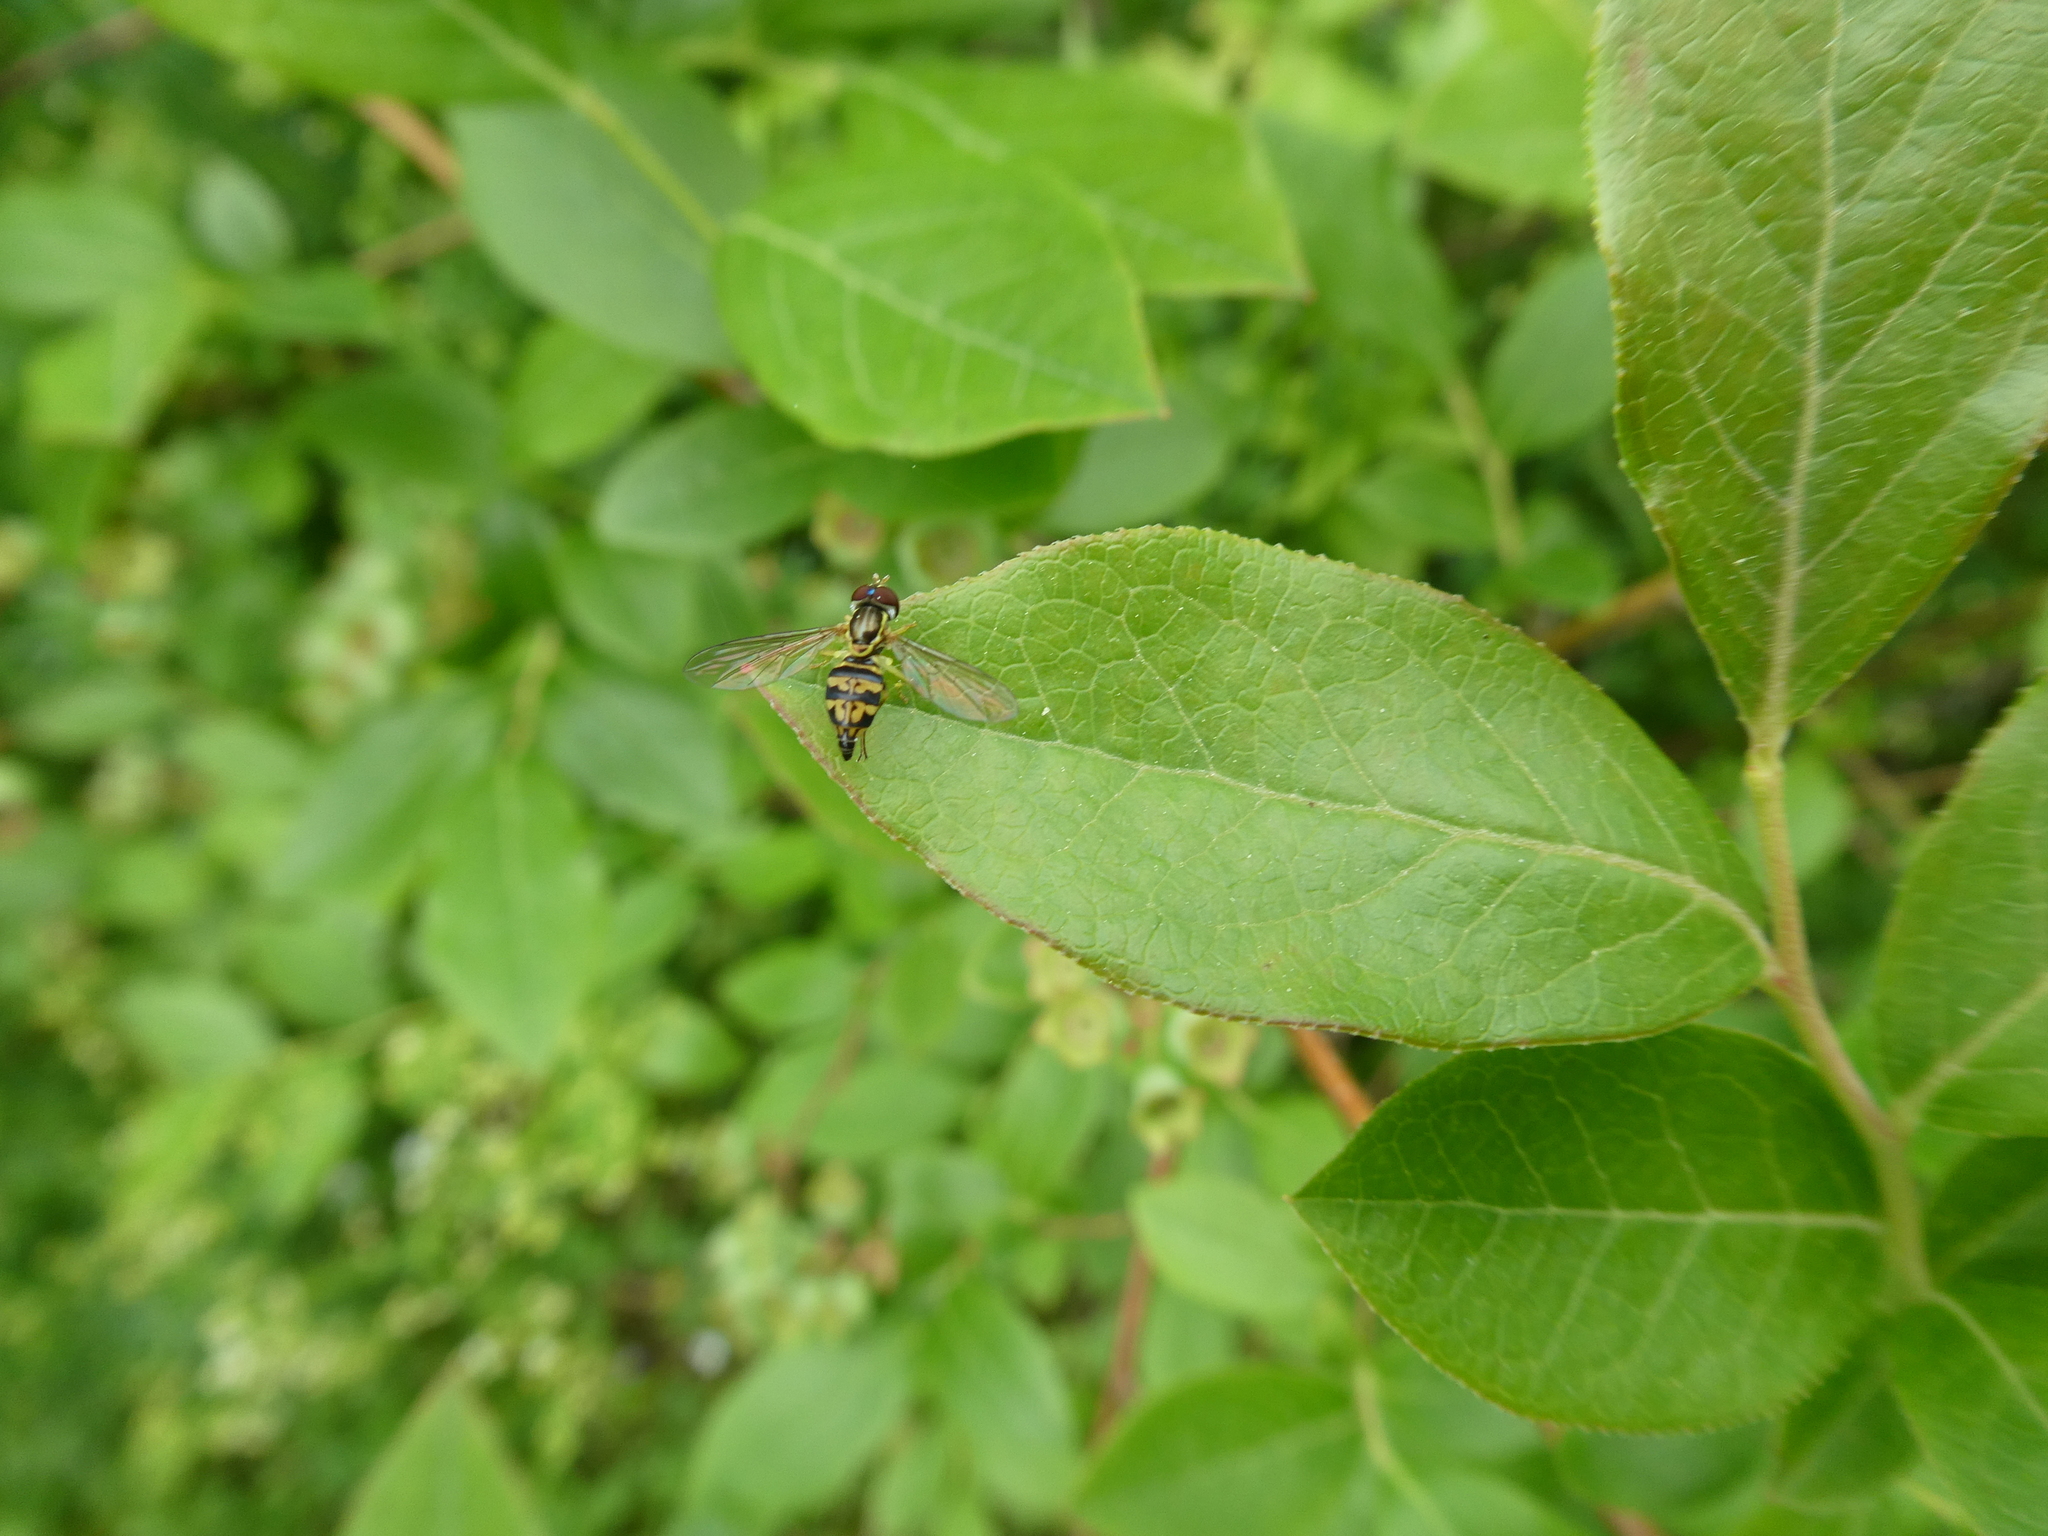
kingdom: Animalia
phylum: Arthropoda
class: Insecta
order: Diptera
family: Syrphidae
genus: Toxomerus
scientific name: Toxomerus geminatus
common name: Eastern calligrapher
